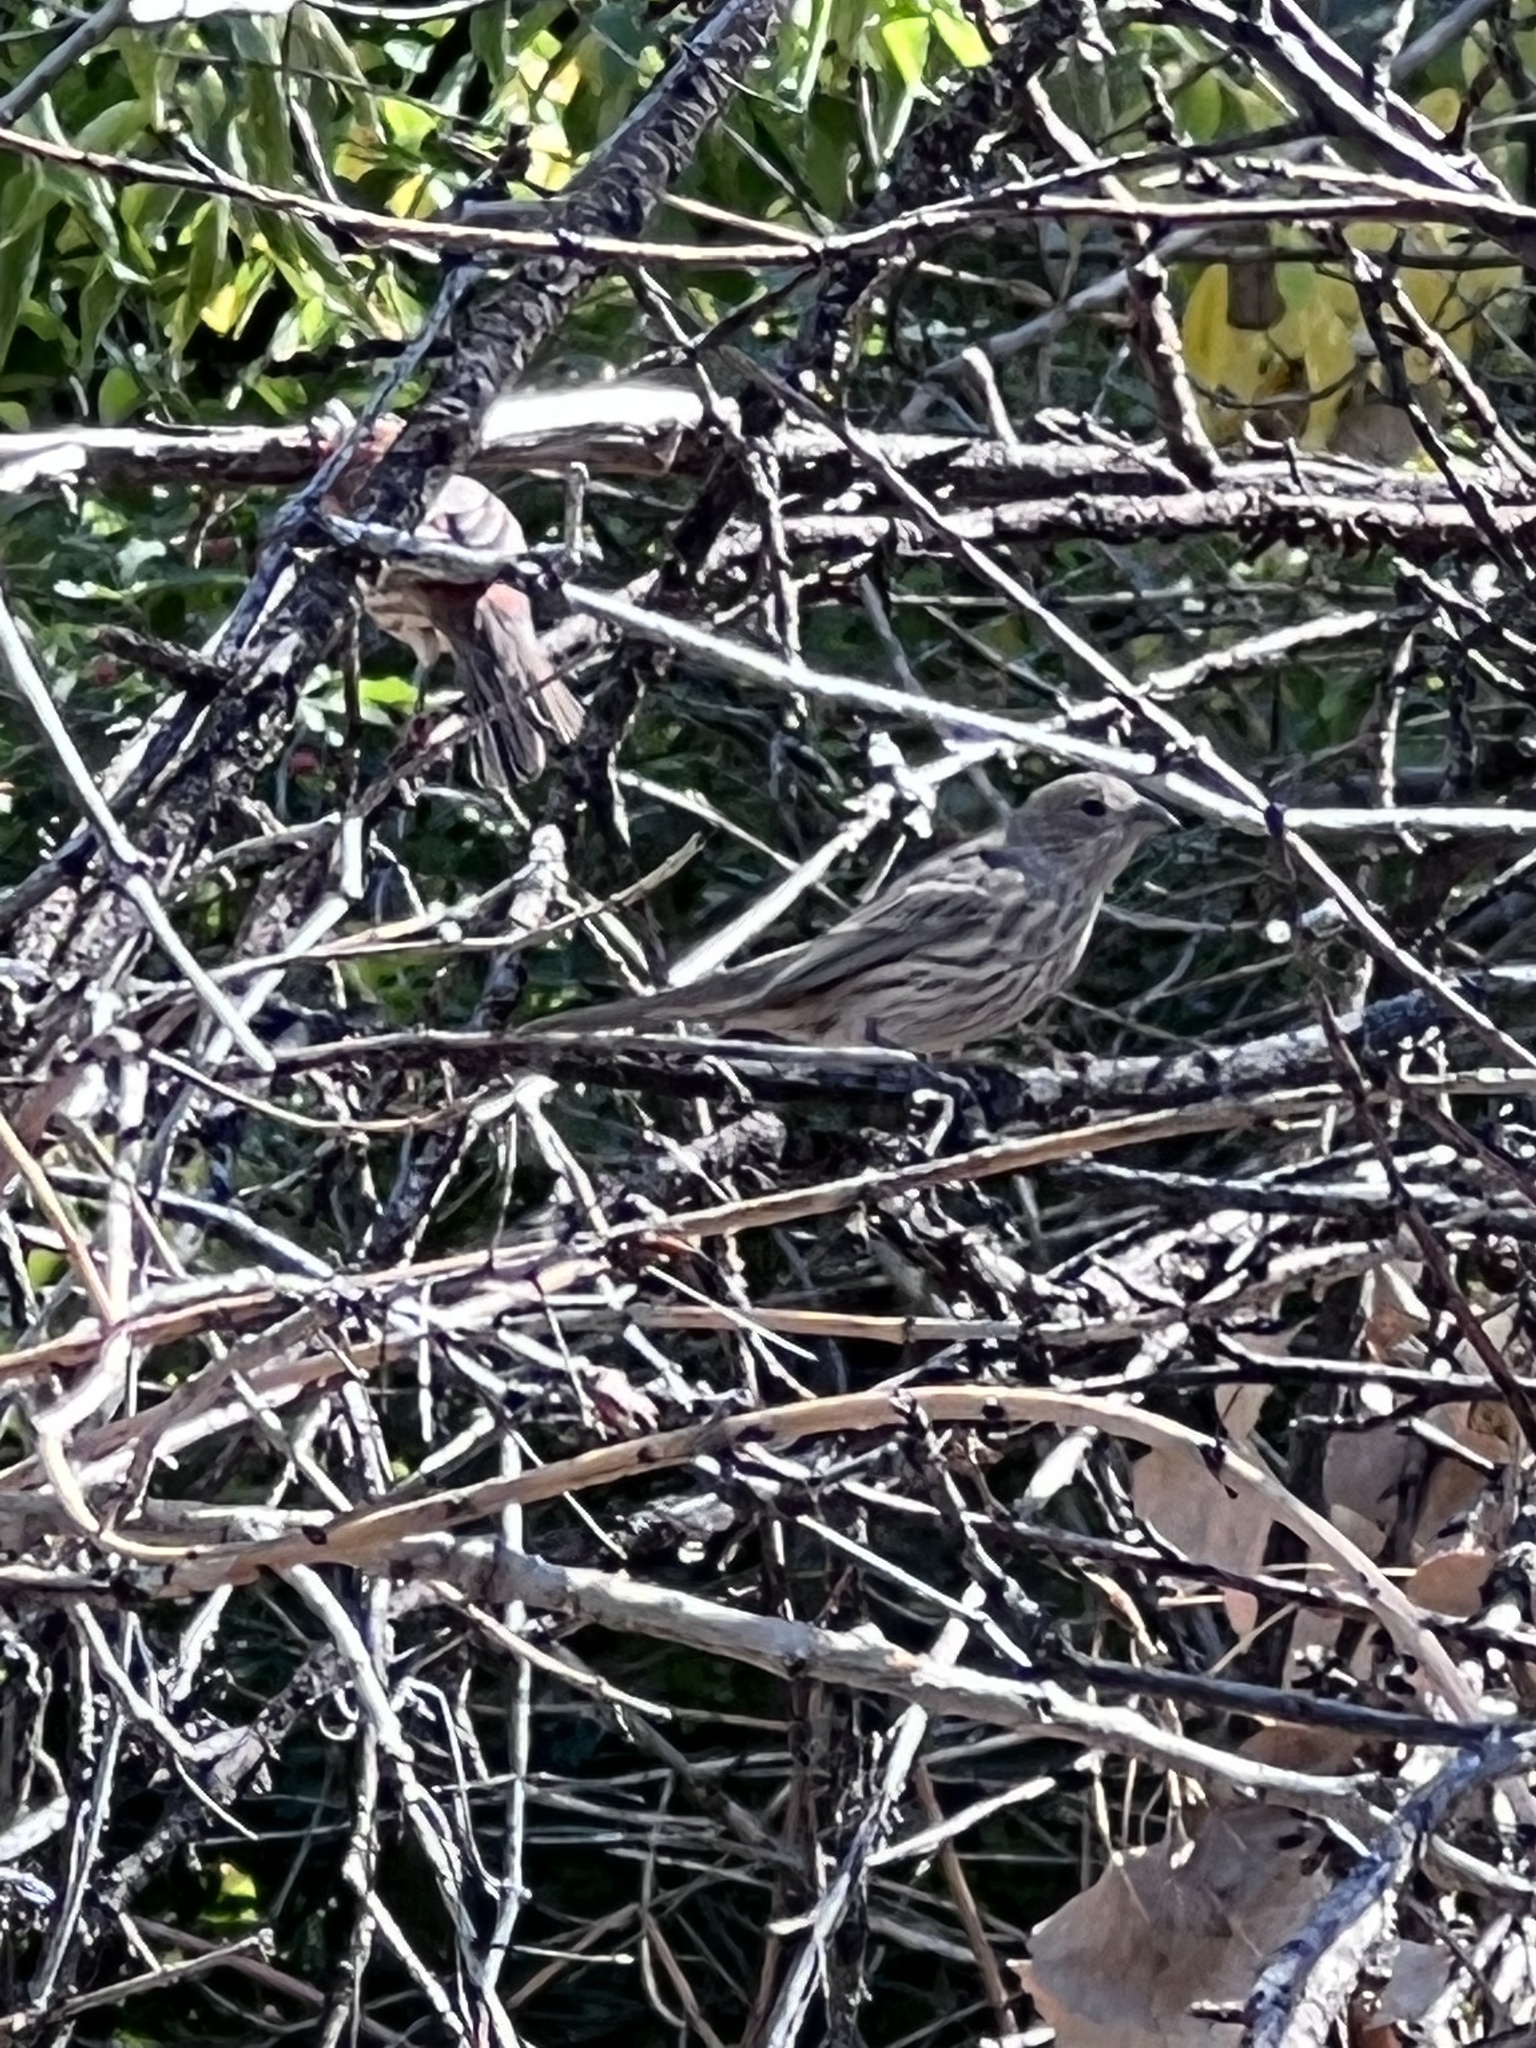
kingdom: Animalia
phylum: Chordata
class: Aves
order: Passeriformes
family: Fringillidae
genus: Haemorhous
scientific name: Haemorhous mexicanus
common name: House finch
